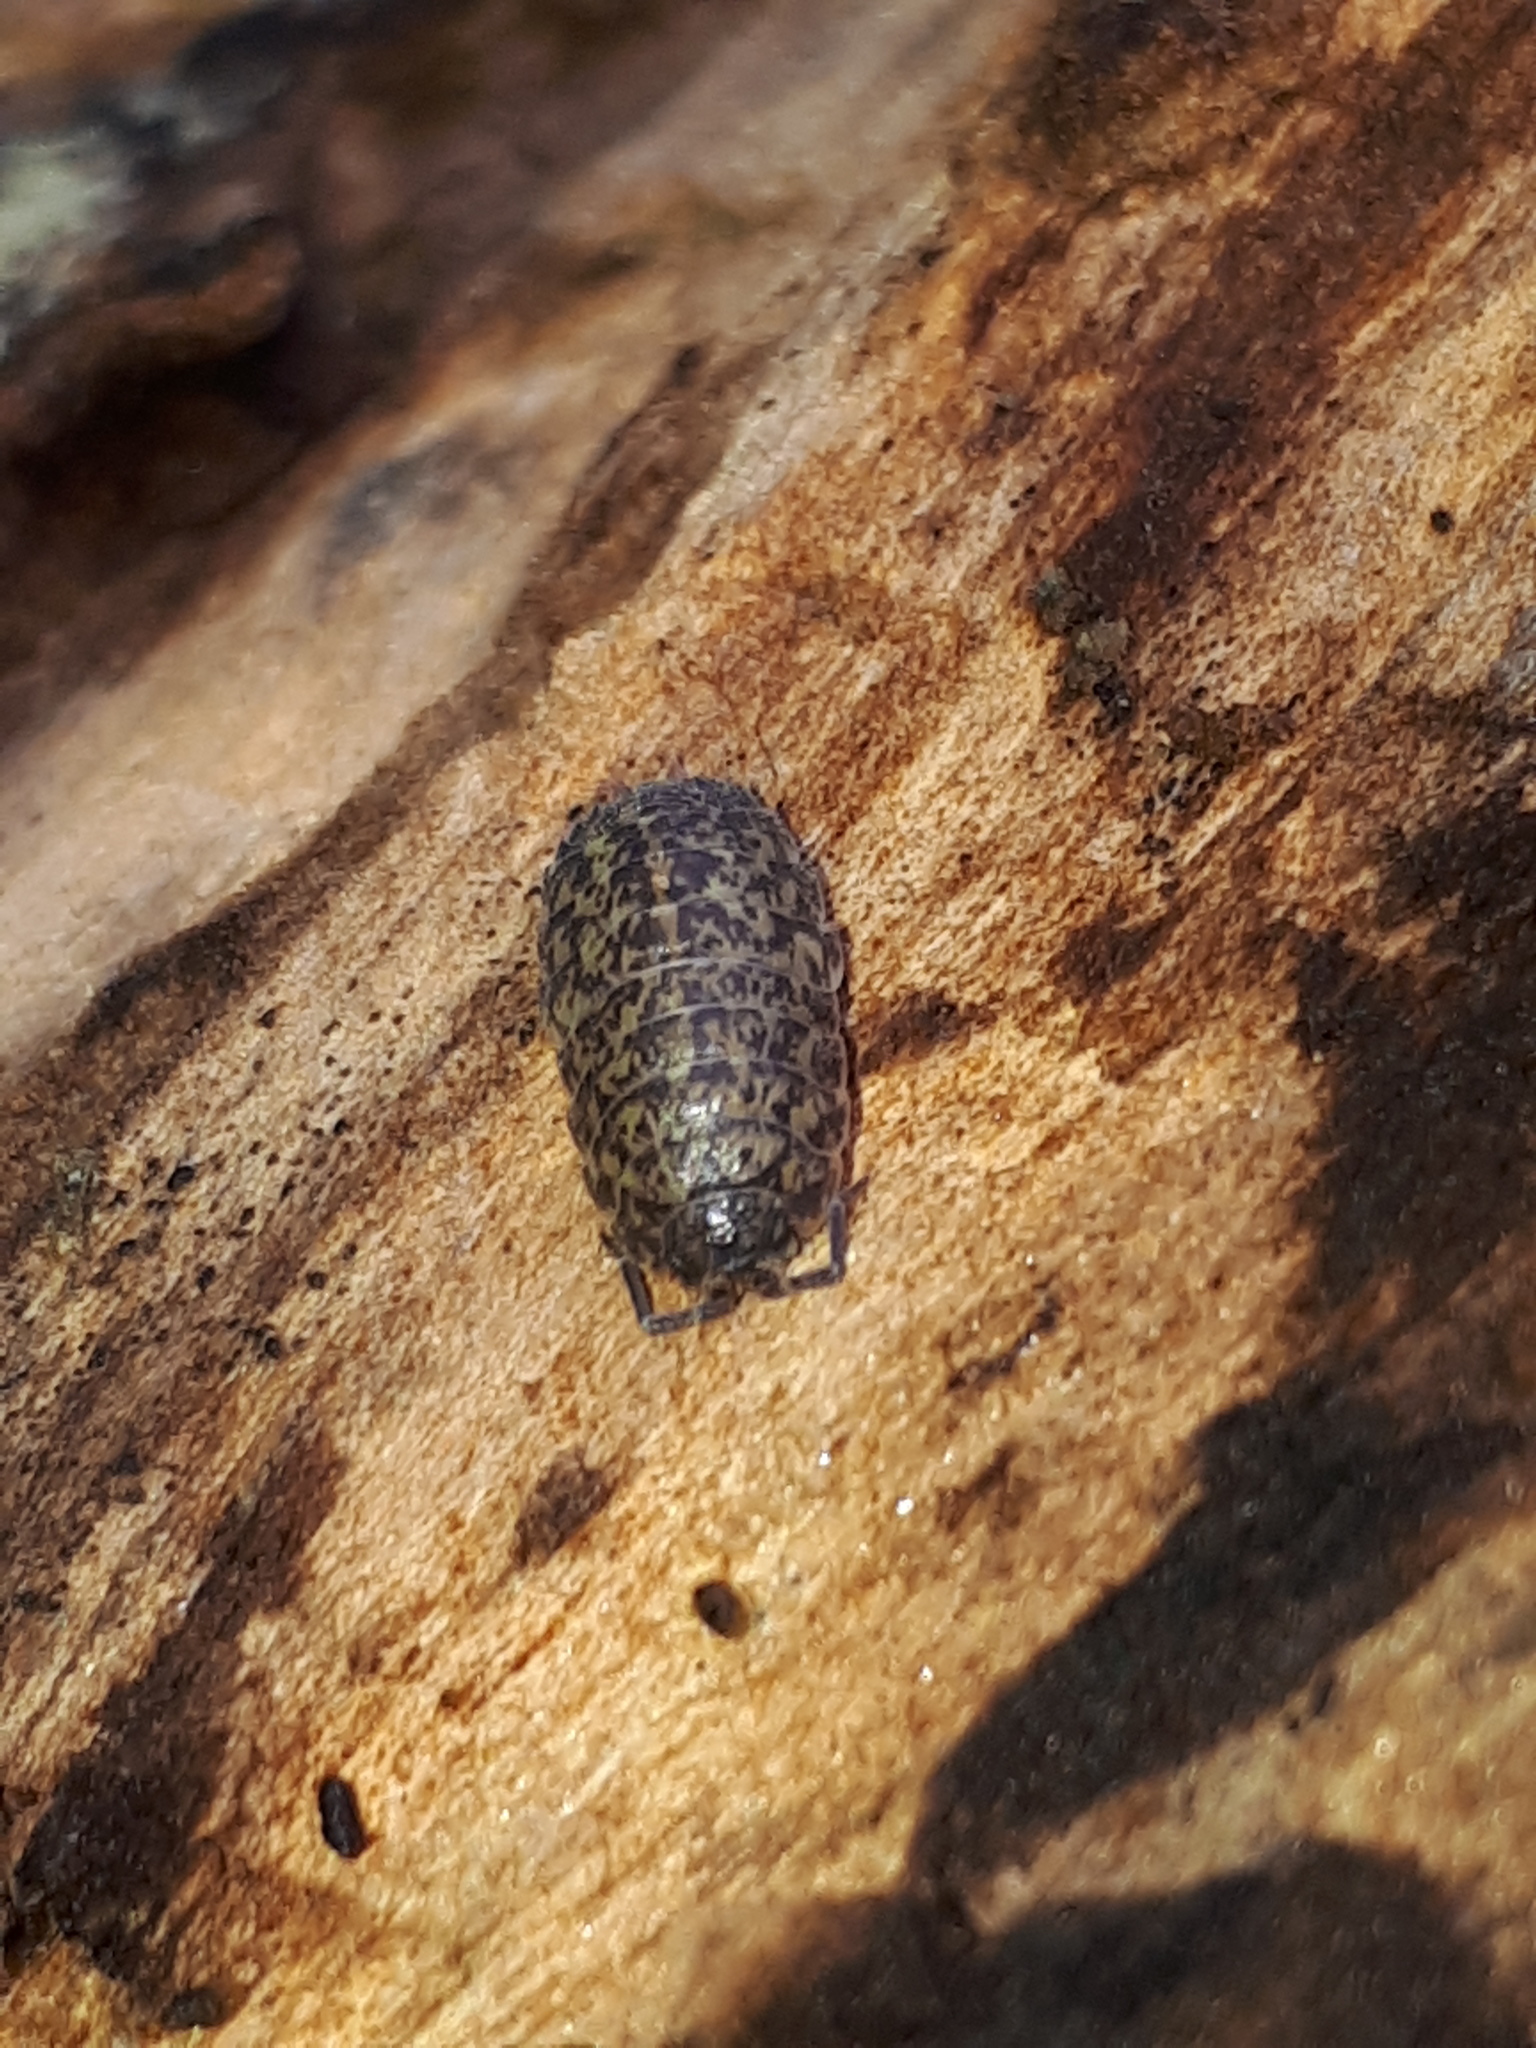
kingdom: Animalia
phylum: Arthropoda
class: Malacostraca
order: Isopoda
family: Trachelipodidae
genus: Porcellium
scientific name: Porcellium collicola
